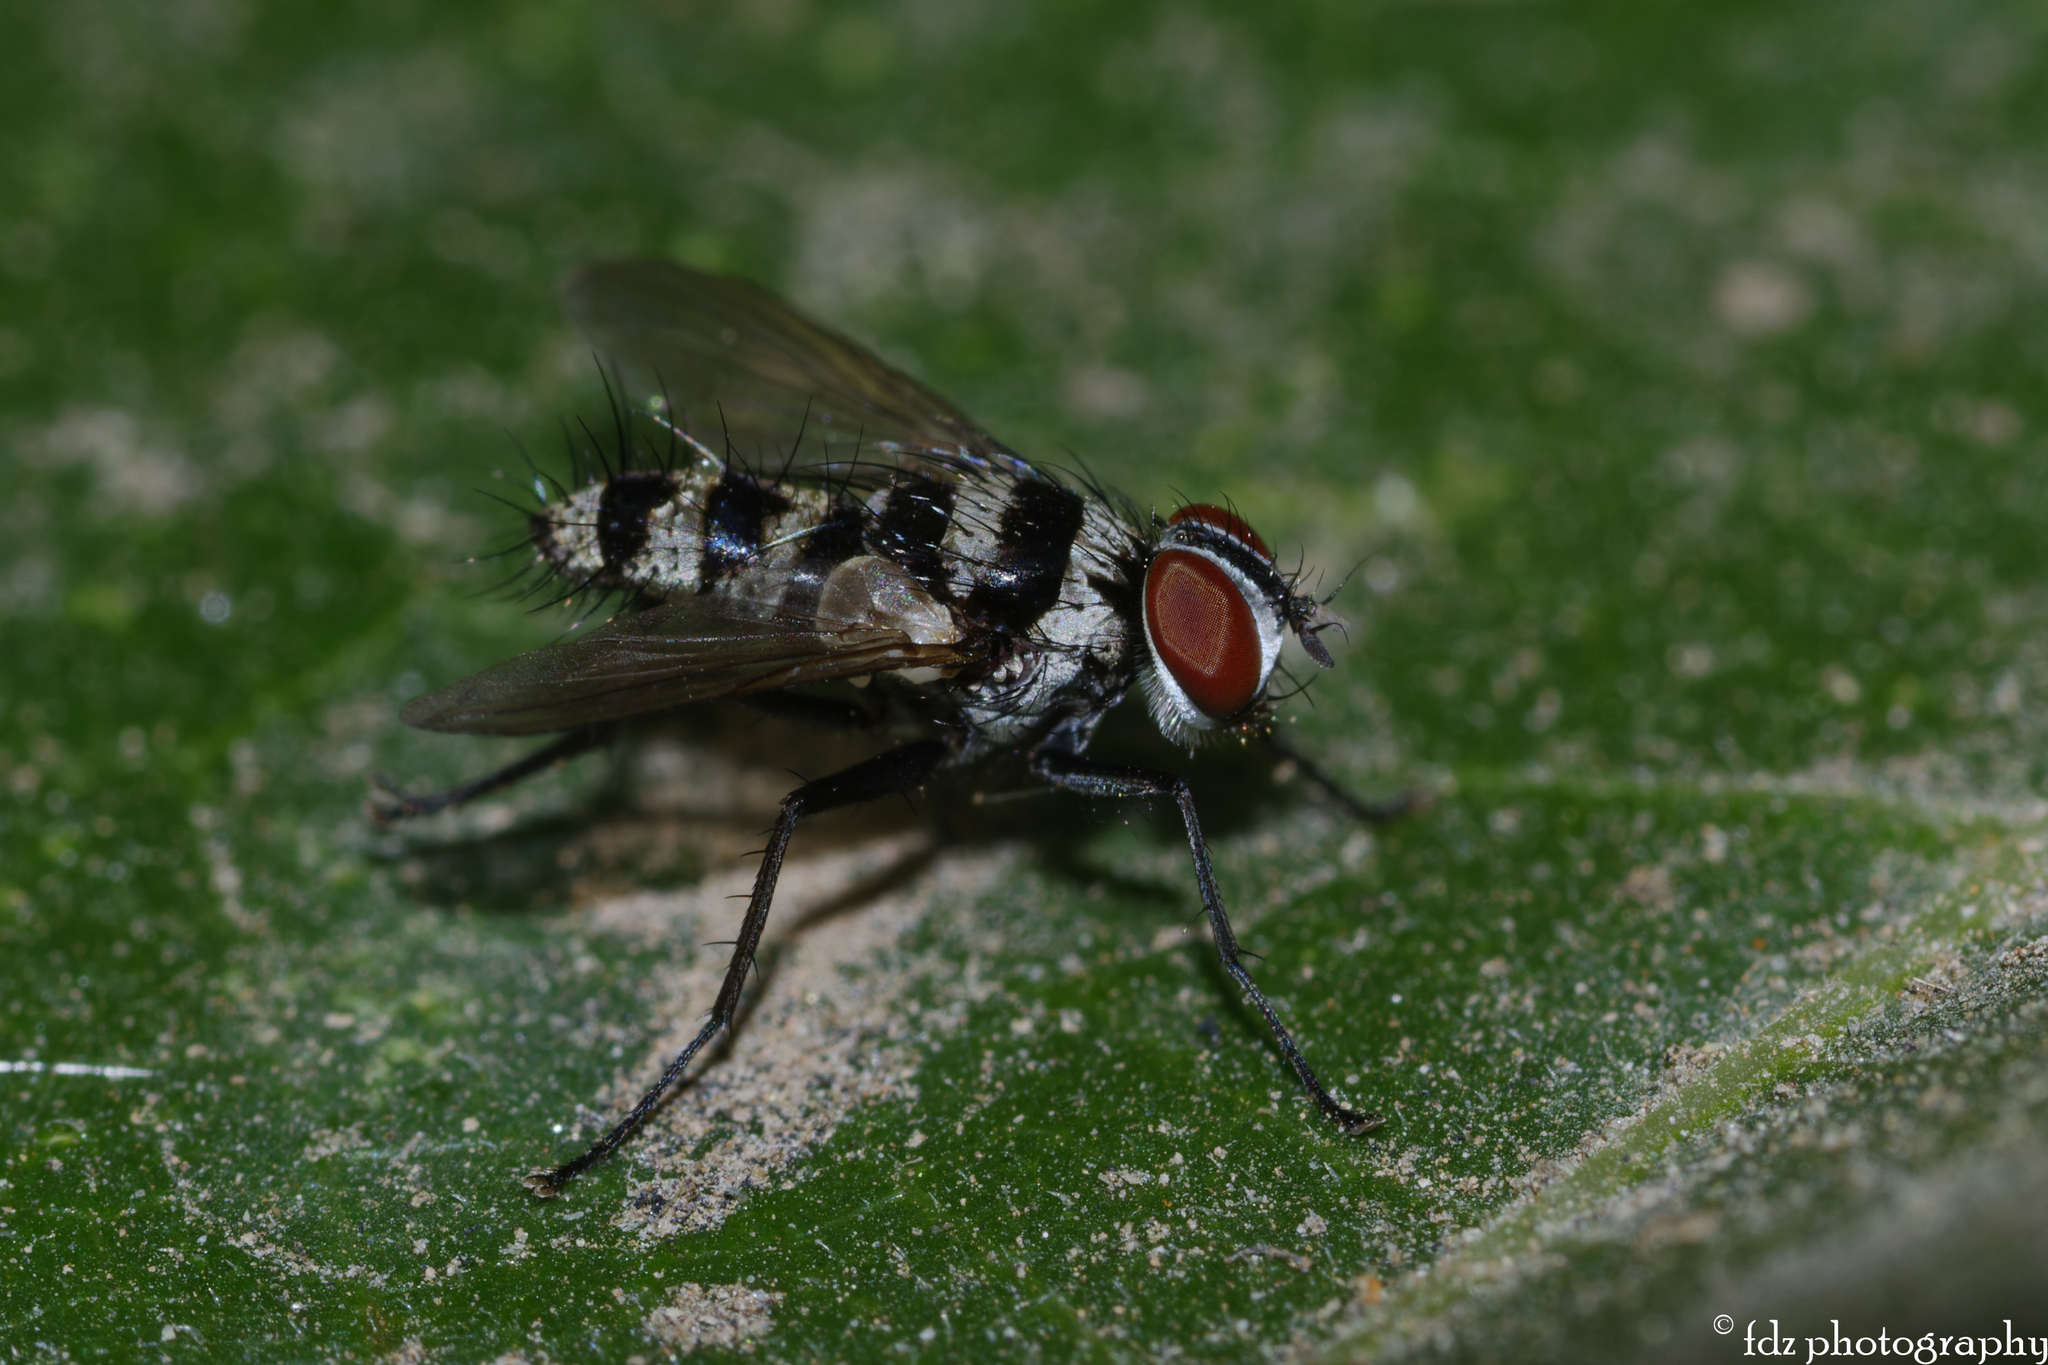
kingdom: Animalia
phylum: Arthropoda
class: Insecta
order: Diptera
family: Tachinidae
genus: Trigonospila
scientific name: Trigonospila transvittata
